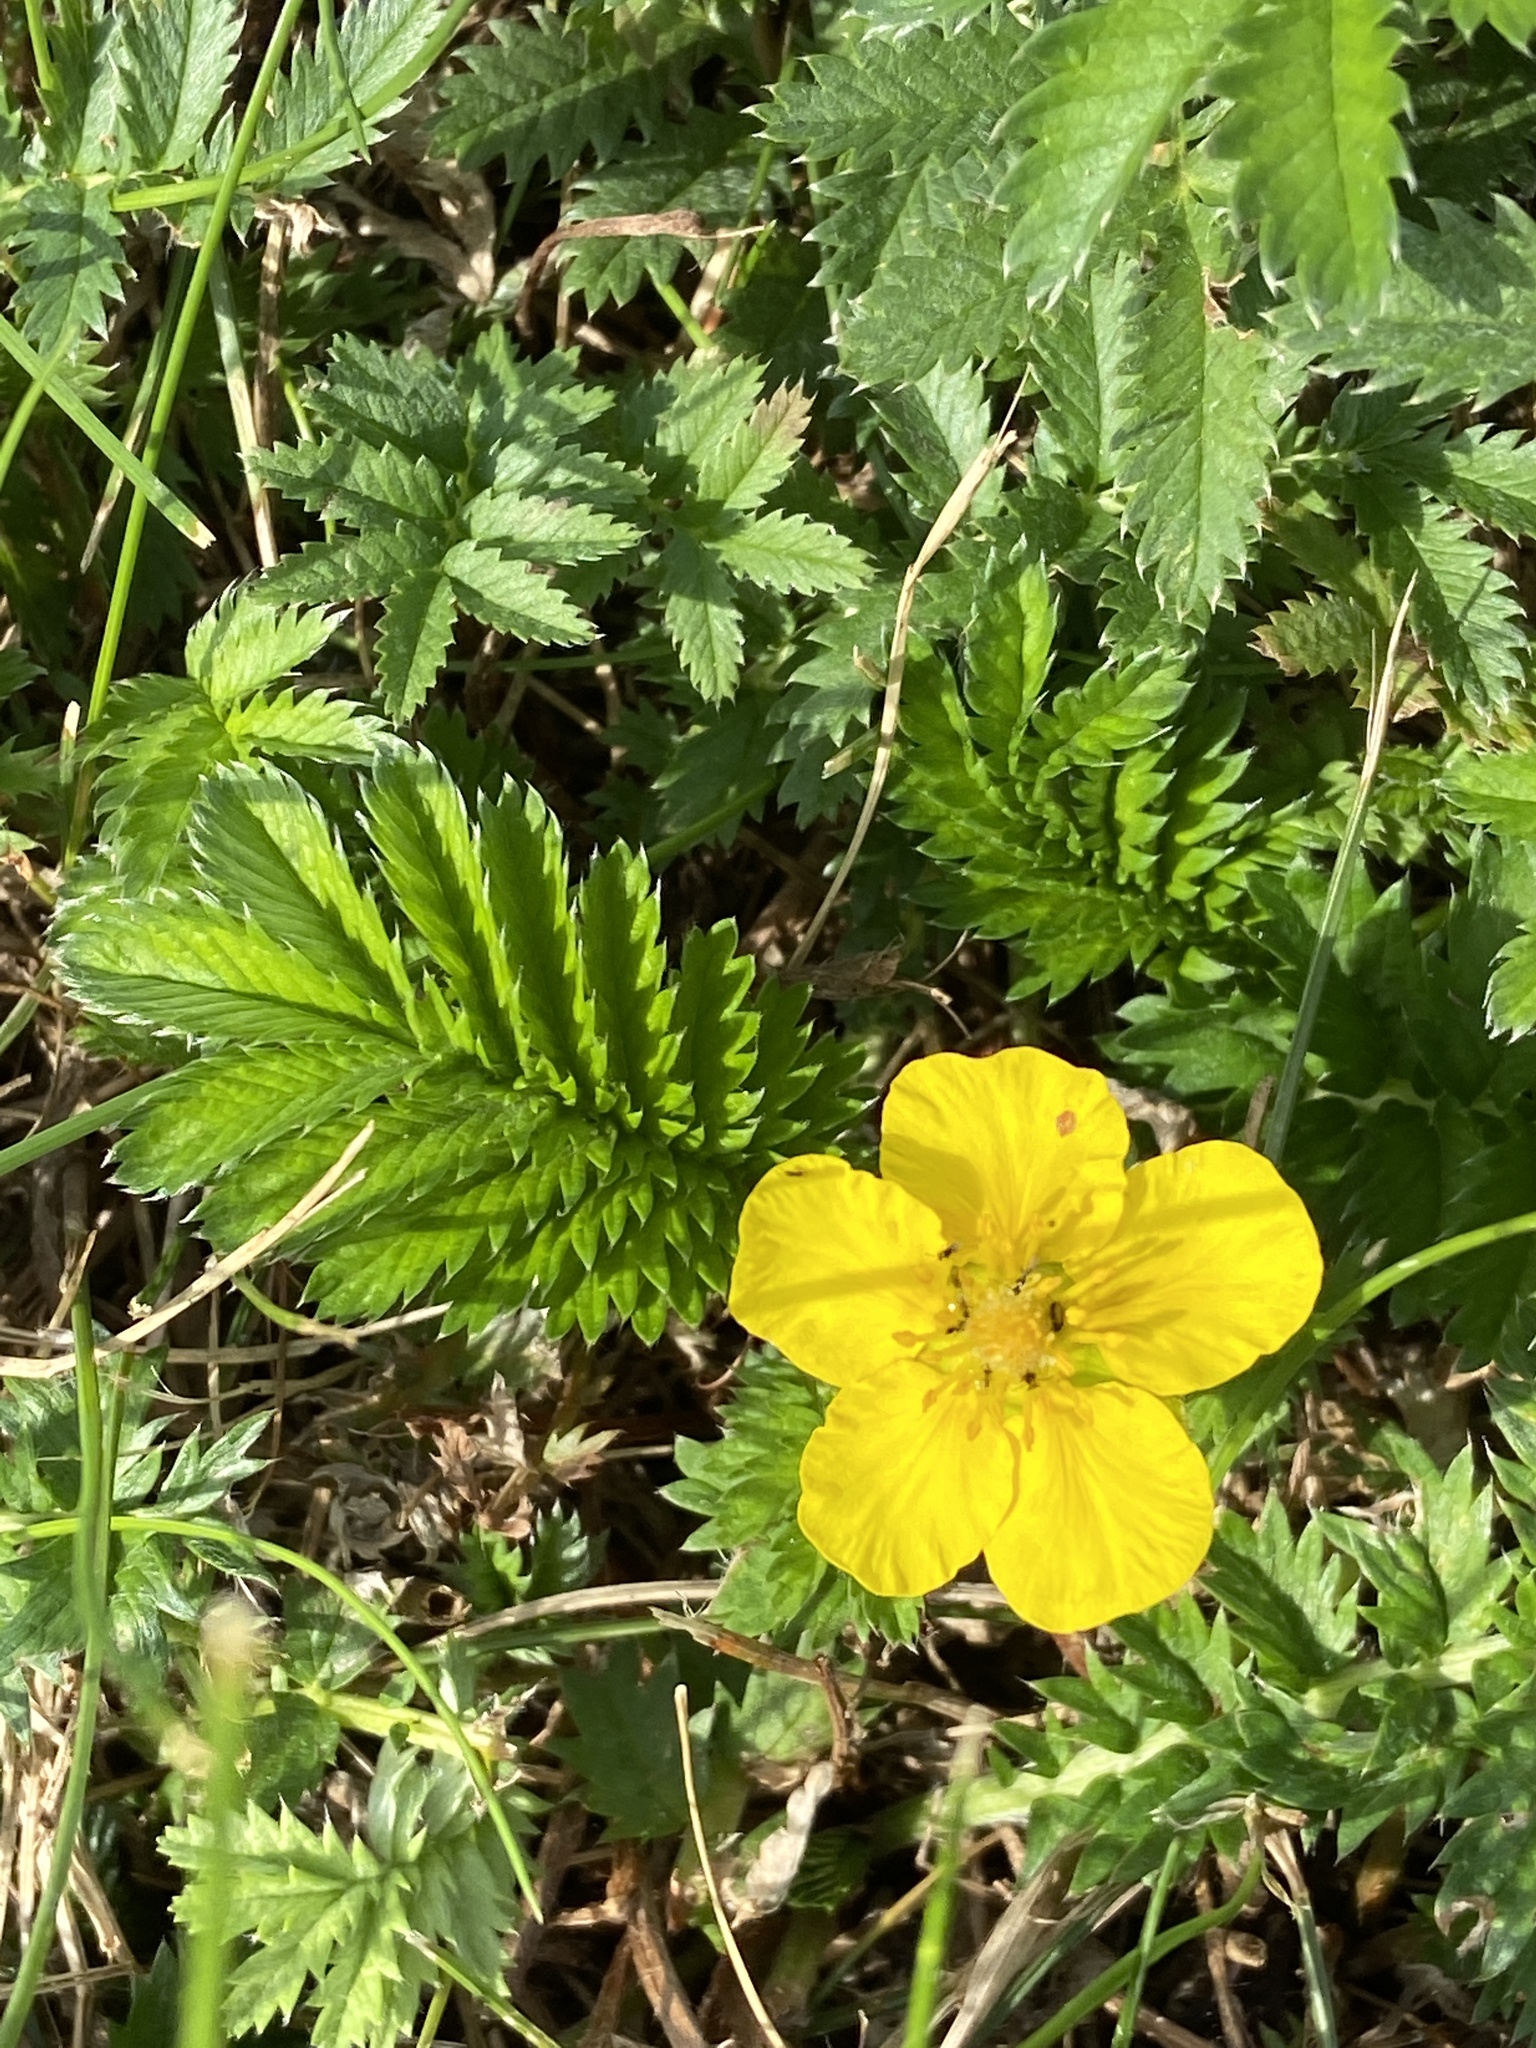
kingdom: Plantae
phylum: Tracheophyta
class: Magnoliopsida
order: Rosales
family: Rosaceae
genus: Argentina
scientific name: Argentina anserina
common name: Common silverweed
